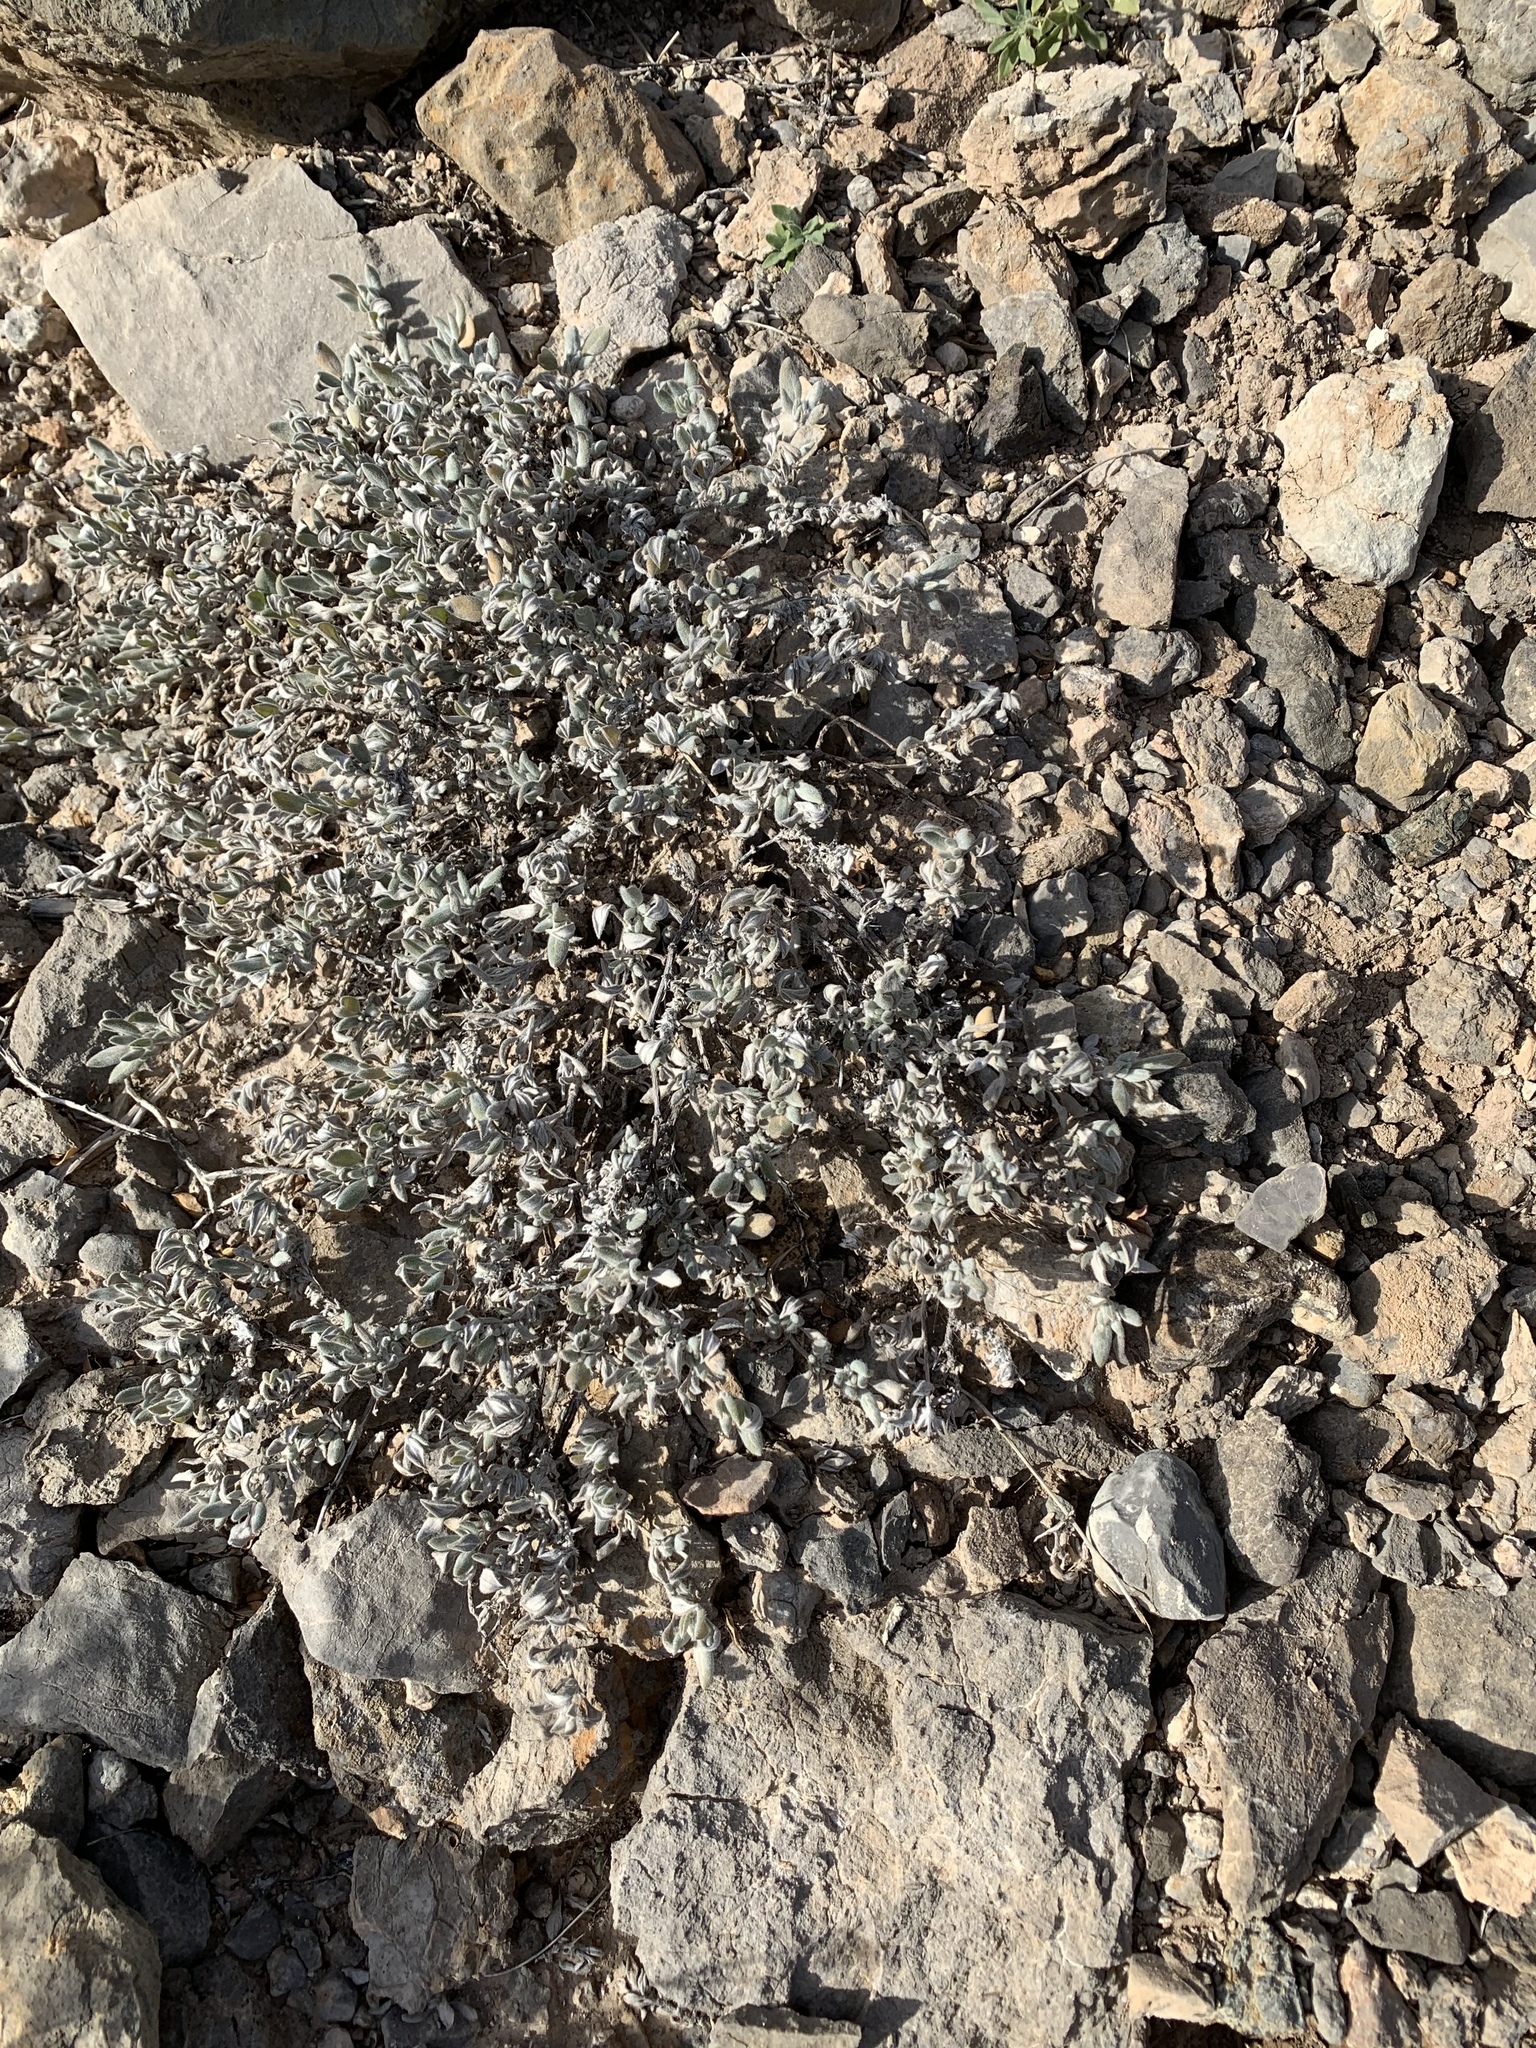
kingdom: Plantae
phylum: Tracheophyta
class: Magnoliopsida
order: Boraginales
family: Ehretiaceae
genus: Tiquilia
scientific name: Tiquilia canescens
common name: Hairy tiquilia
